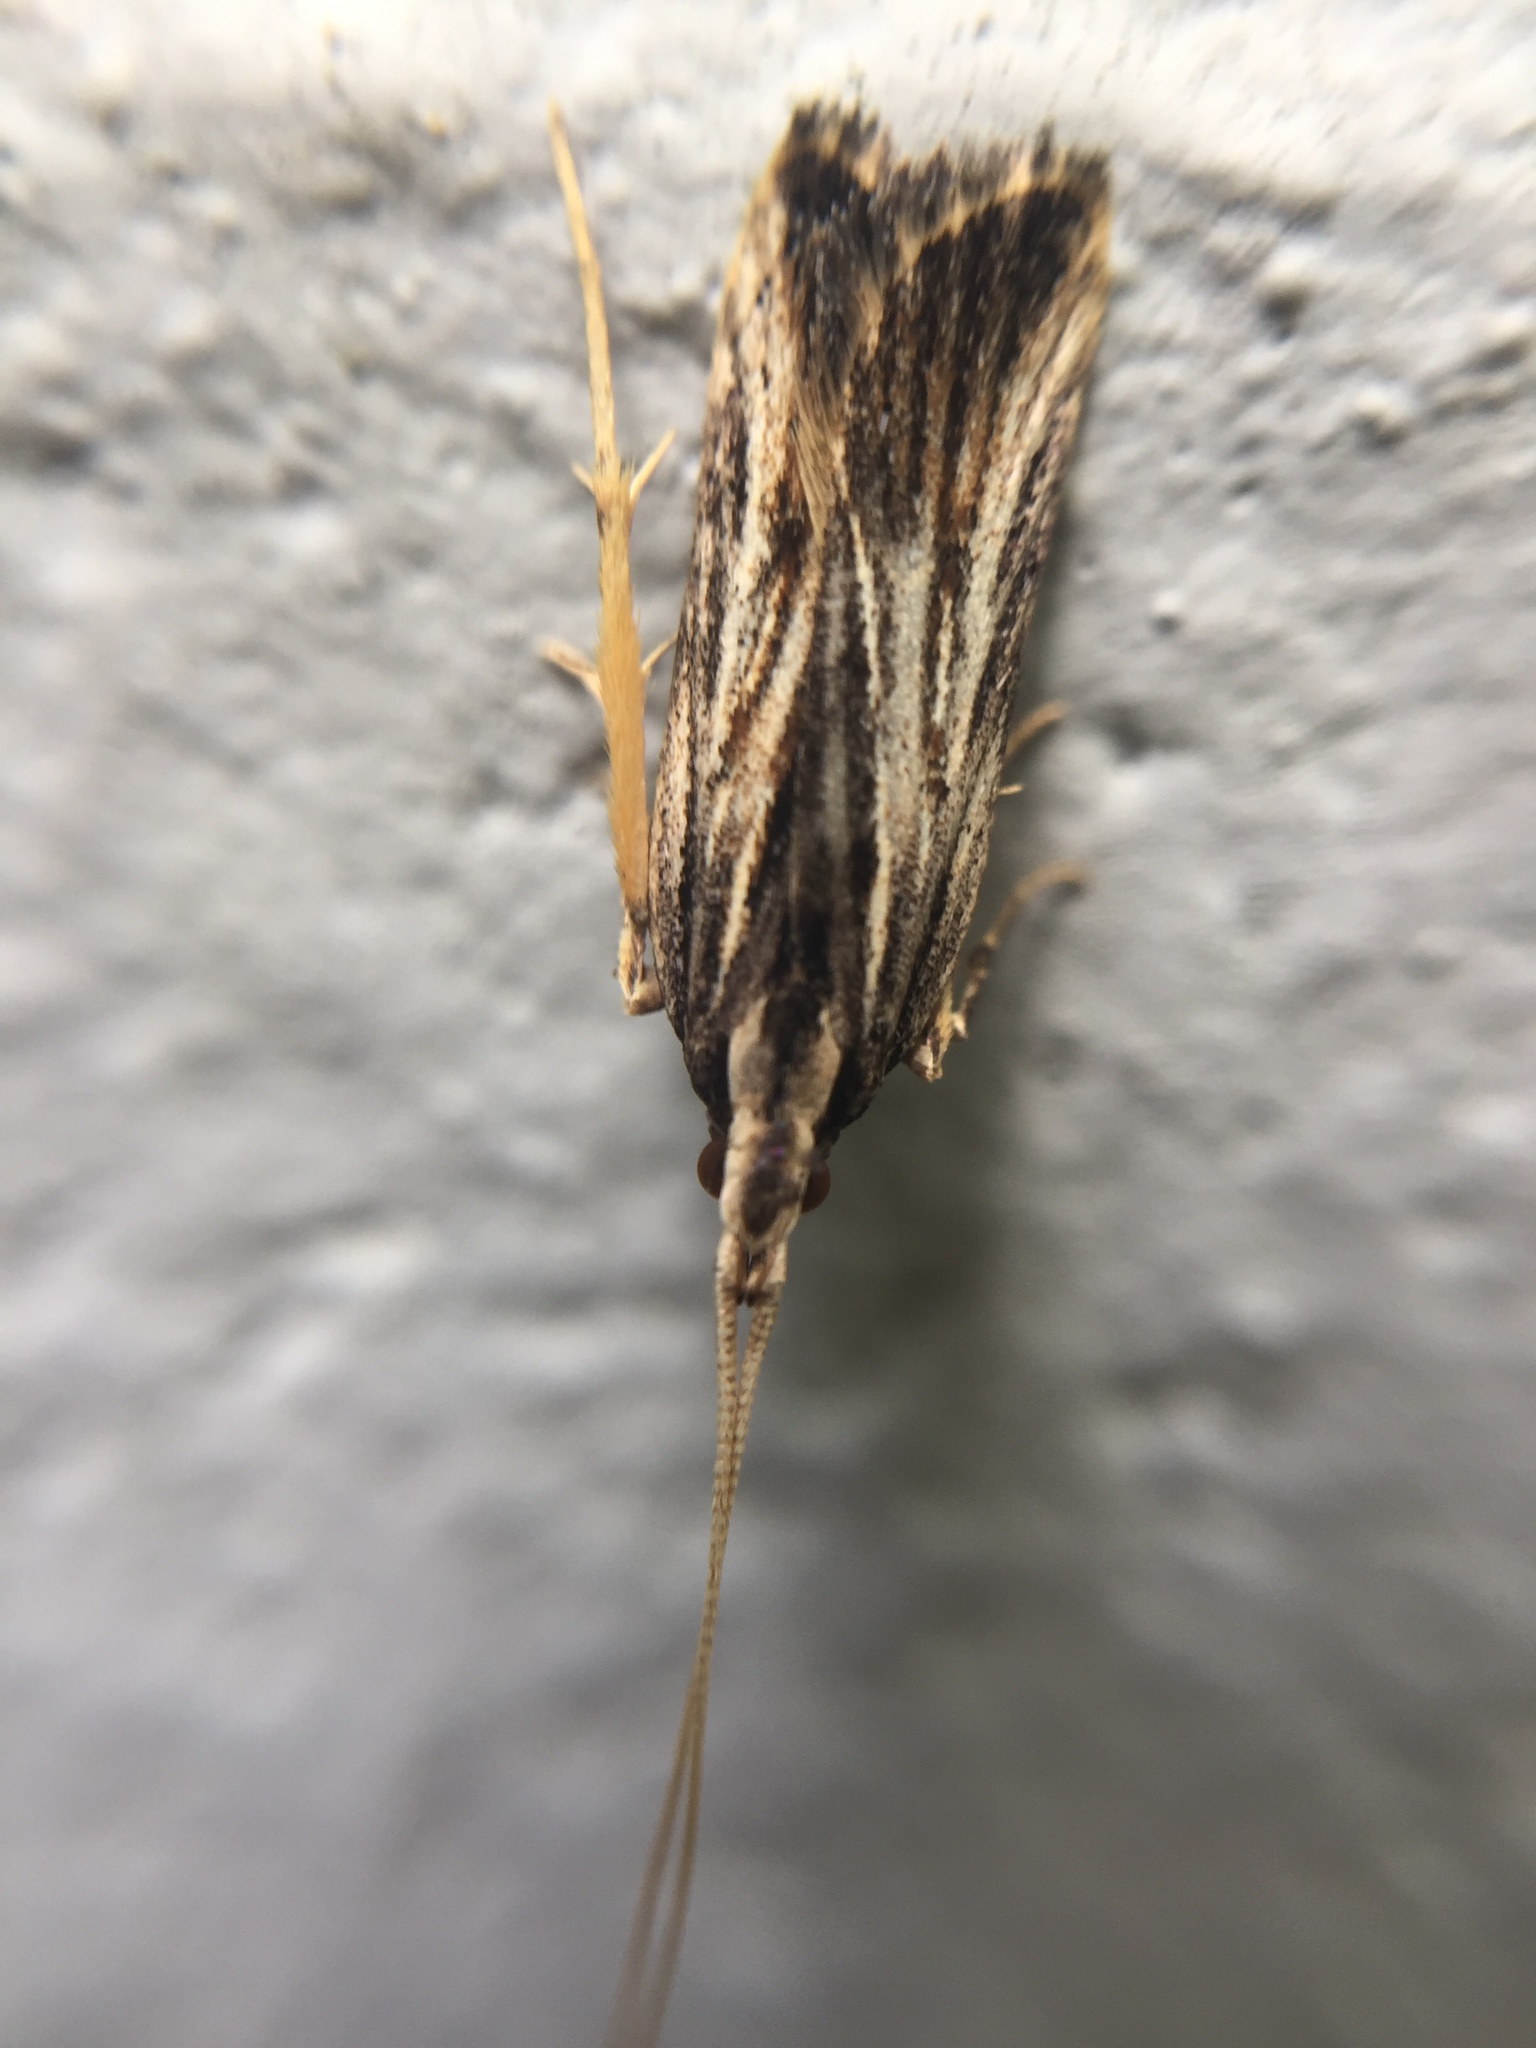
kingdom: Animalia
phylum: Arthropoda
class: Insecta
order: Lepidoptera
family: Lecithoceridae
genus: Sarisophora
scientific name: Sarisophora leucoscia
